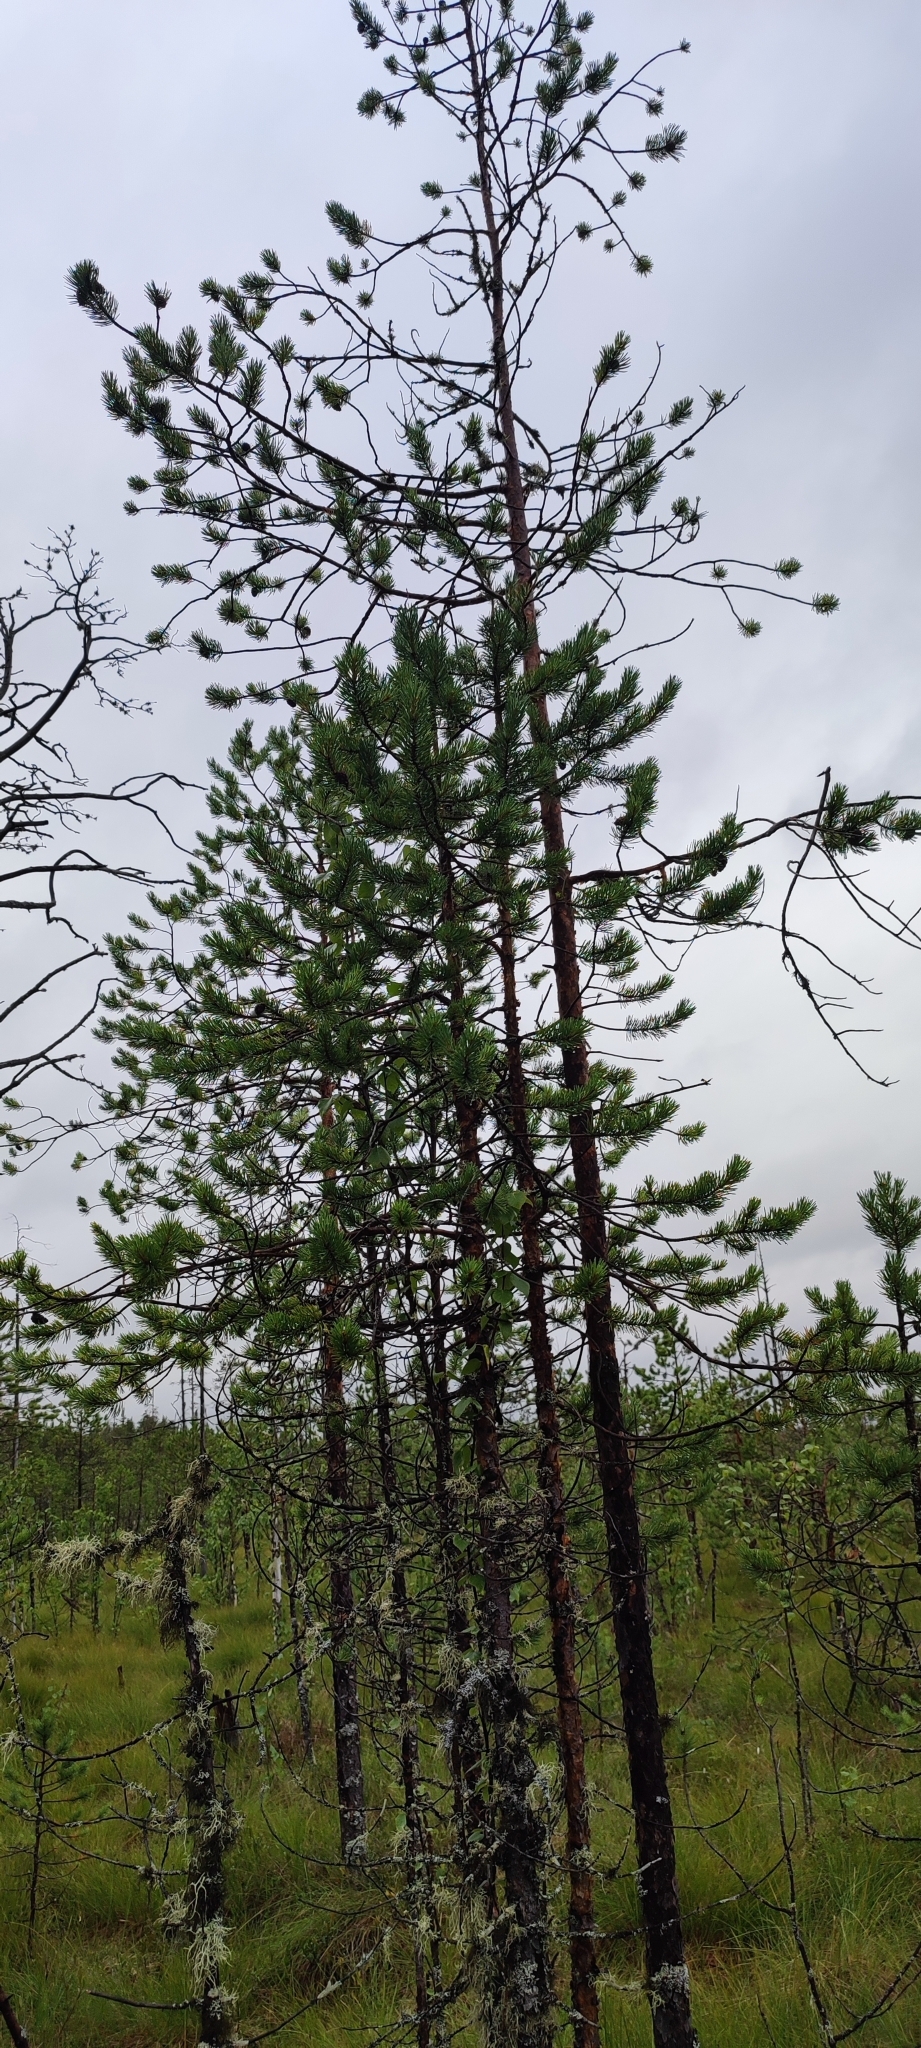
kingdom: Plantae
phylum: Tracheophyta
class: Pinopsida
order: Pinales
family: Pinaceae
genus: Pinus
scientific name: Pinus sylvestris
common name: Scots pine
